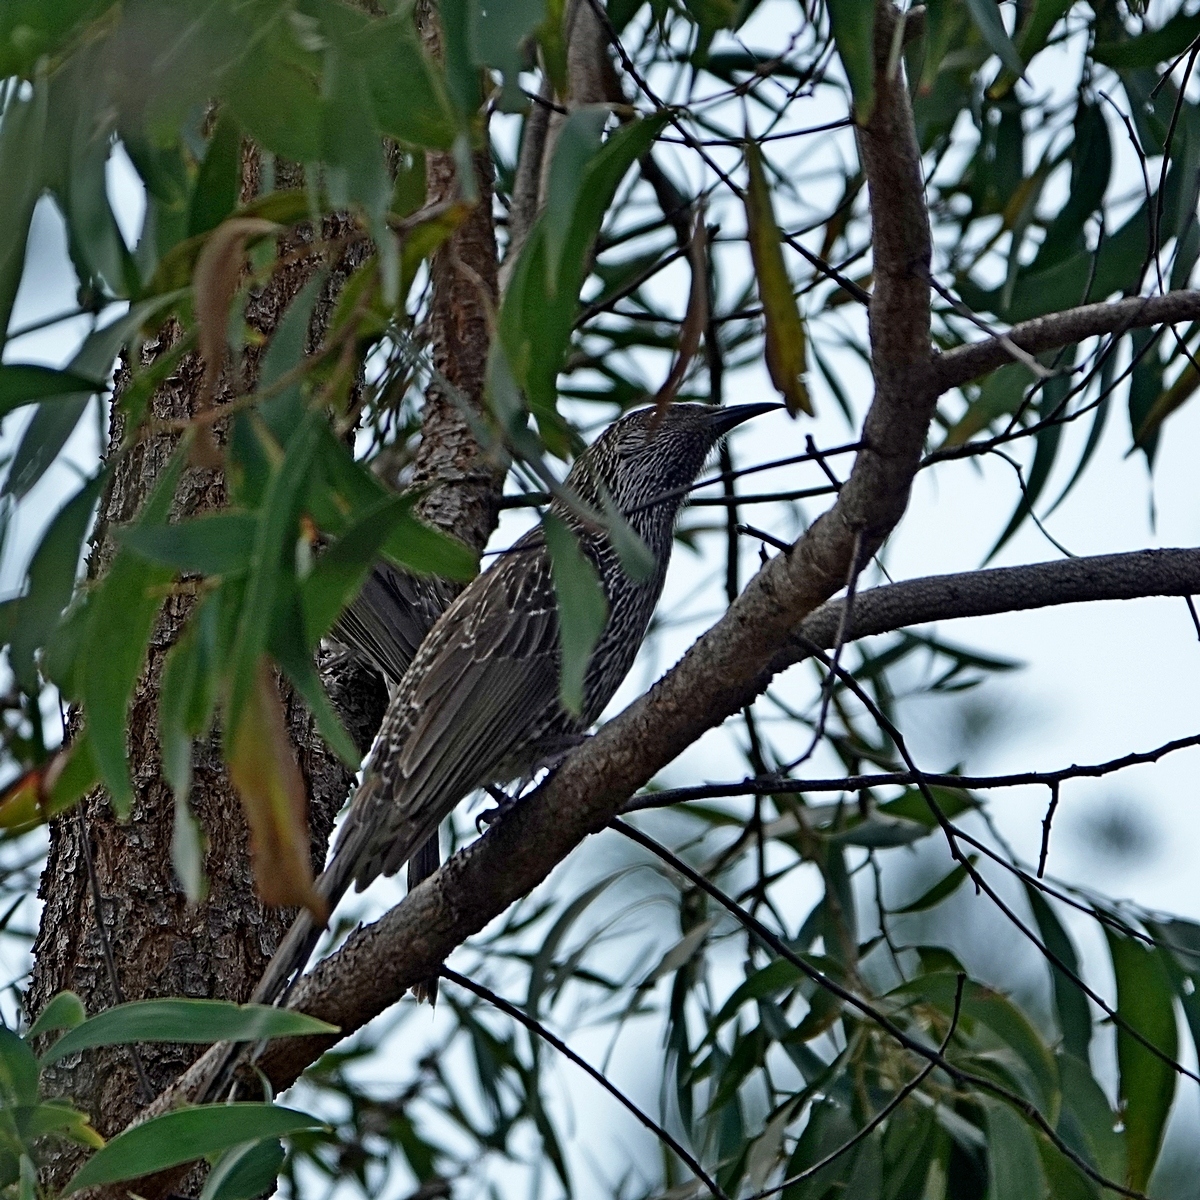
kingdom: Animalia
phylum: Chordata
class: Aves
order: Passeriformes
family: Meliphagidae
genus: Anthochaera
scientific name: Anthochaera chrysoptera
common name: Little wattlebird
